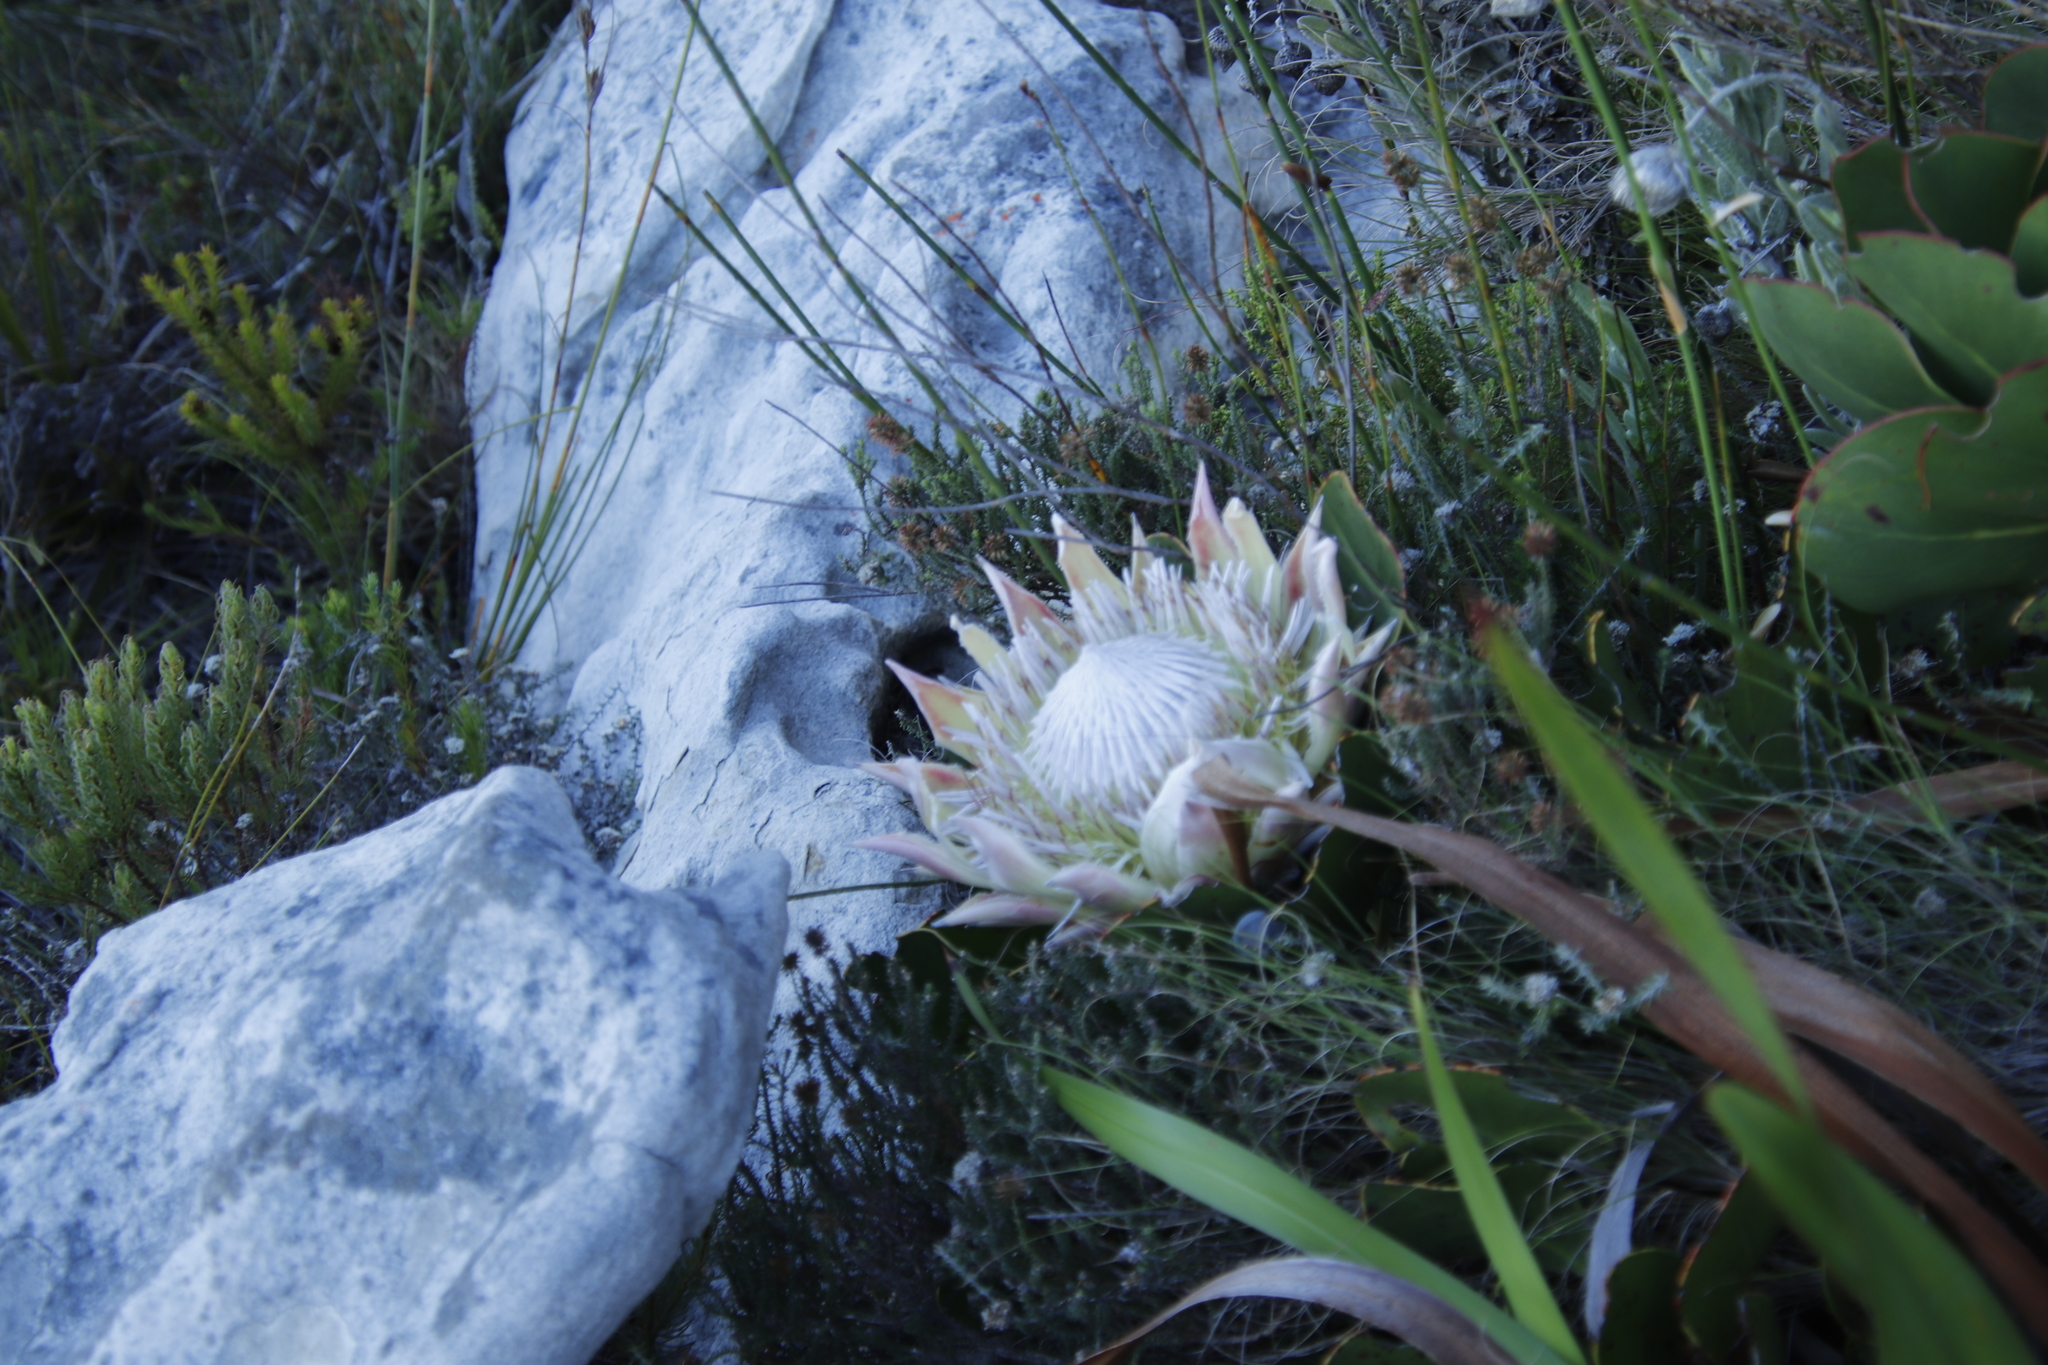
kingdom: Plantae
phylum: Tracheophyta
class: Magnoliopsida
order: Proteales
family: Proteaceae
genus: Protea
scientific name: Protea cynaroides
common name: King protea
